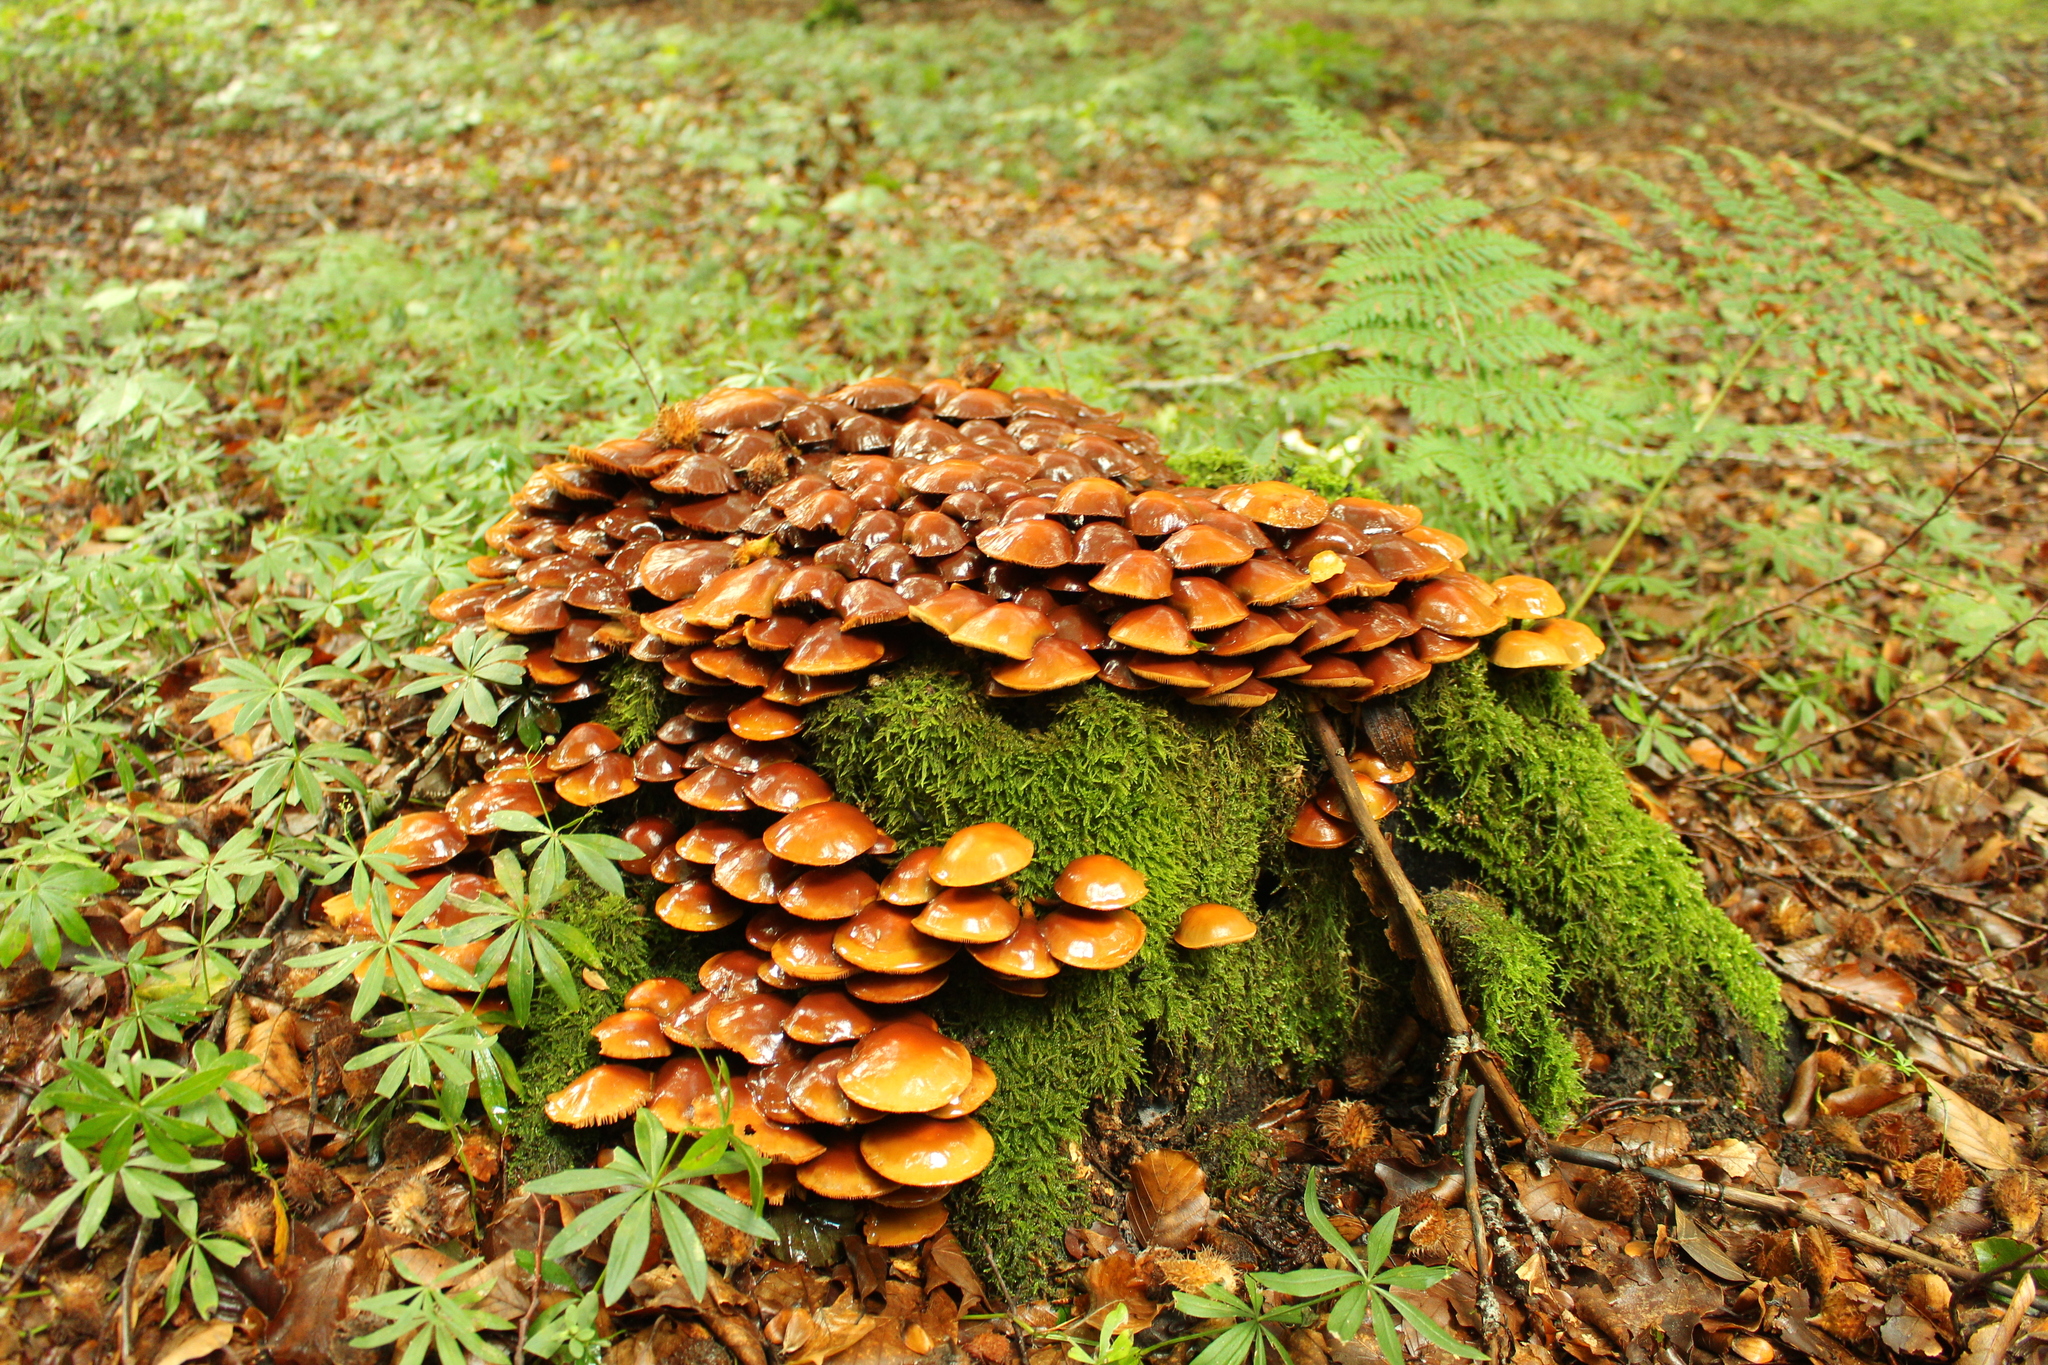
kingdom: Fungi
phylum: Basidiomycota
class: Agaricomycetes
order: Agaricales
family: Strophariaceae
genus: Kuehneromyces
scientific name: Kuehneromyces mutabilis
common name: Sheathed woodtuft
